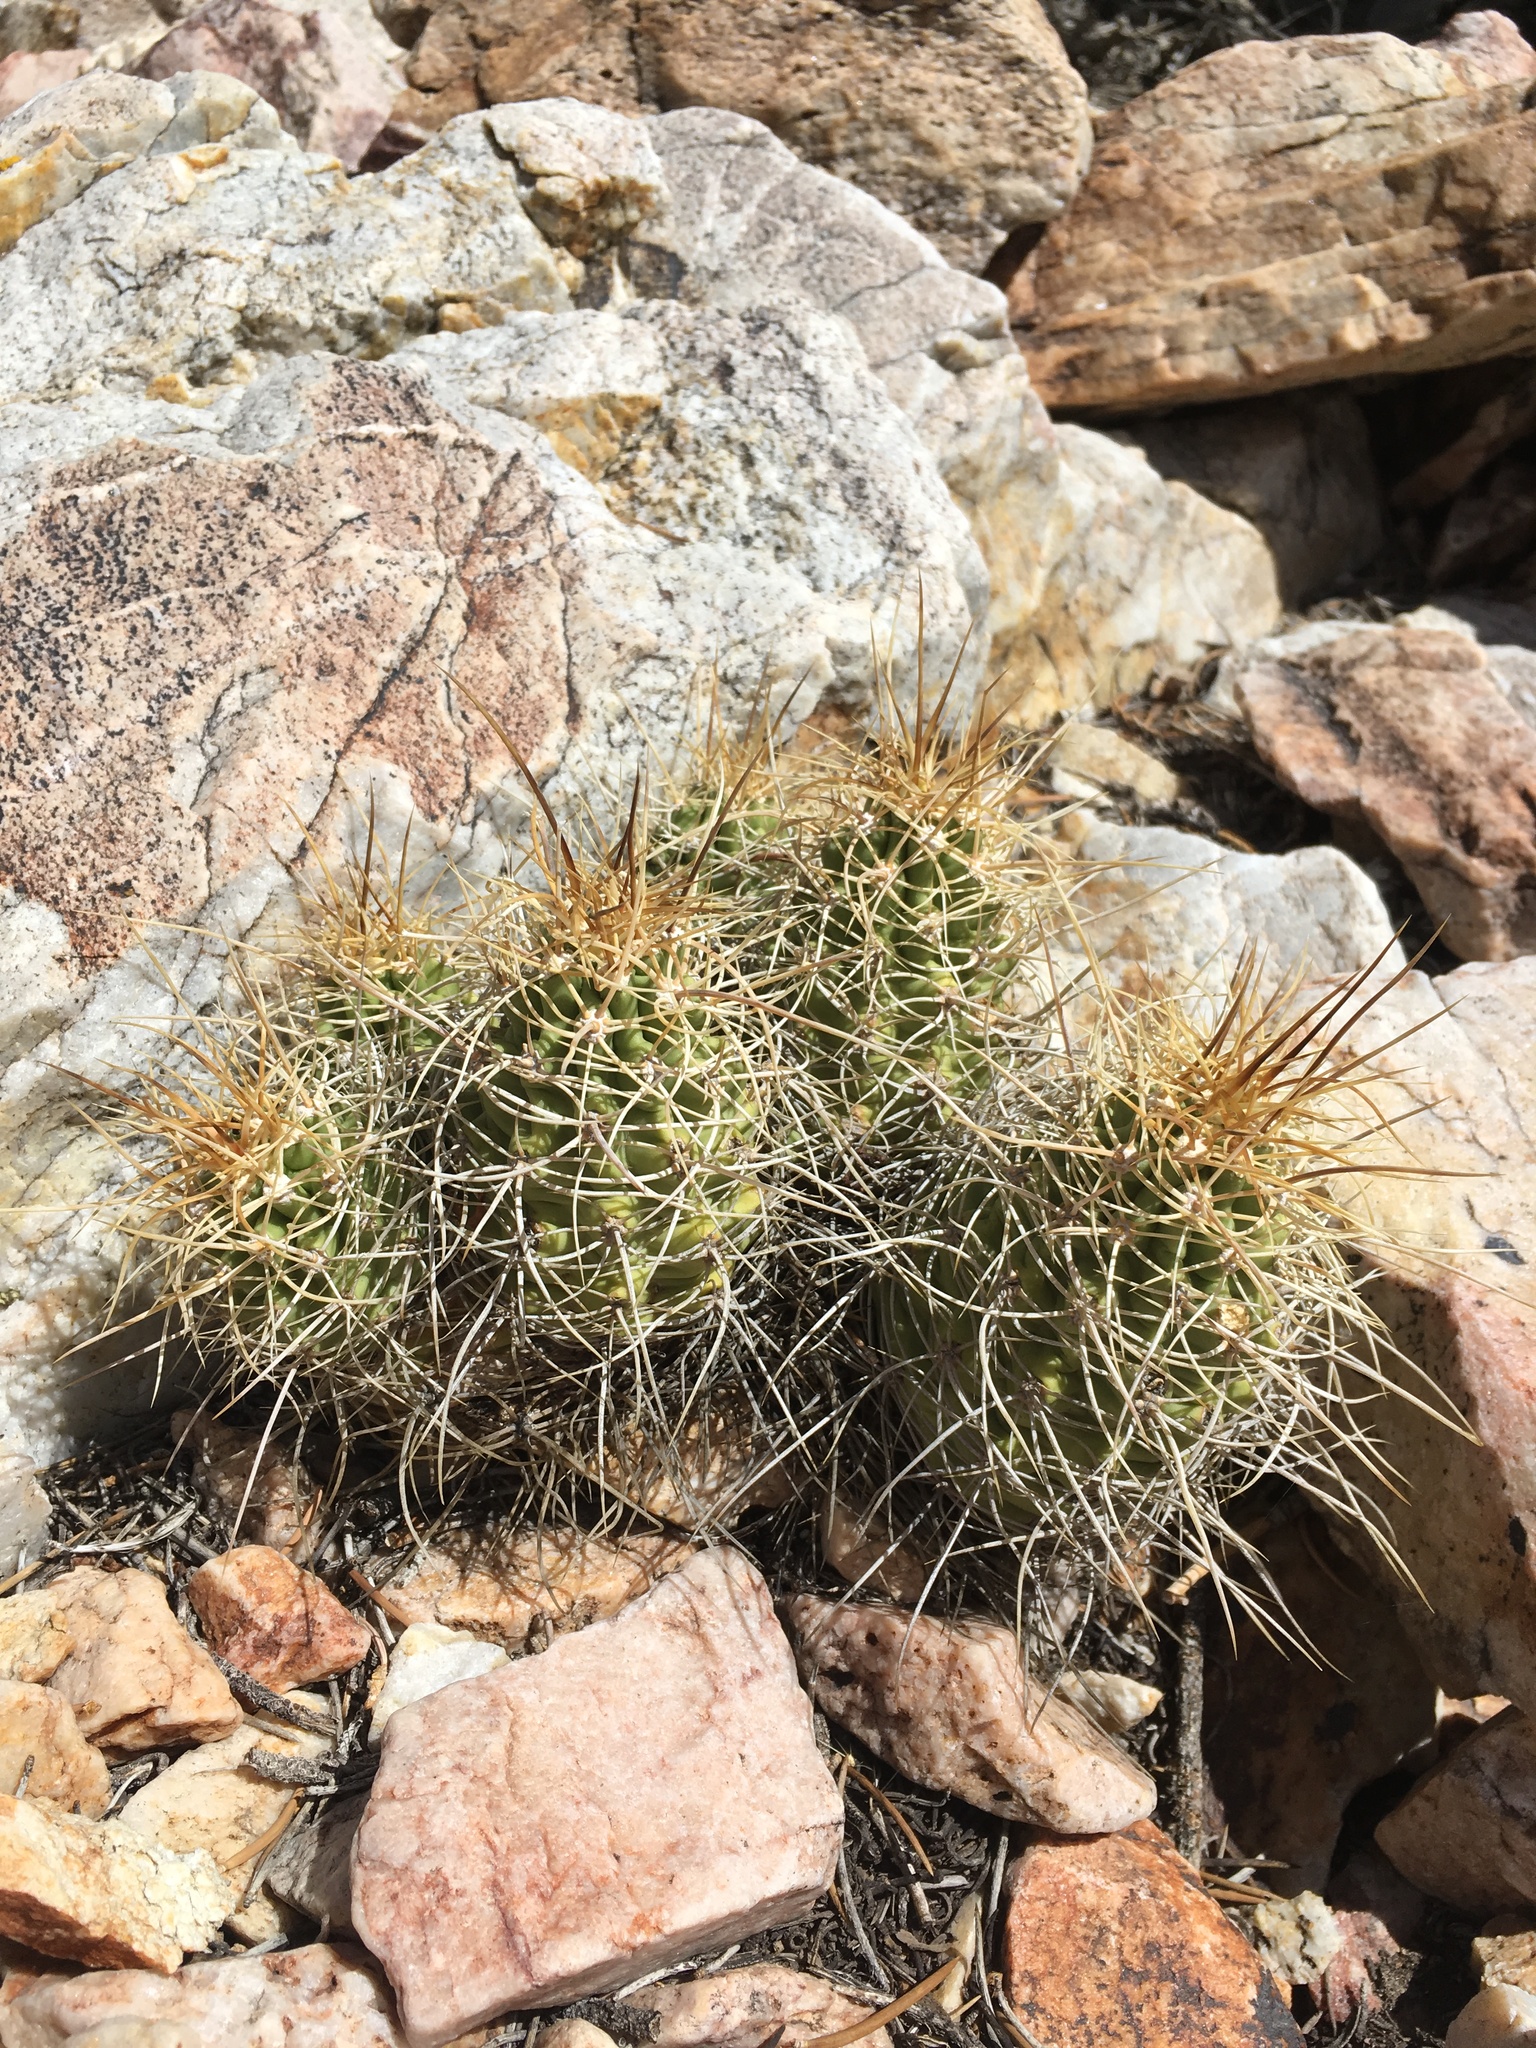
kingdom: Plantae
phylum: Tracheophyta
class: Magnoliopsida
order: Caryophyllales
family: Cactaceae
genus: Echinocereus
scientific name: Echinocereus triglochidiatus
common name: Claretcup hedgehog
